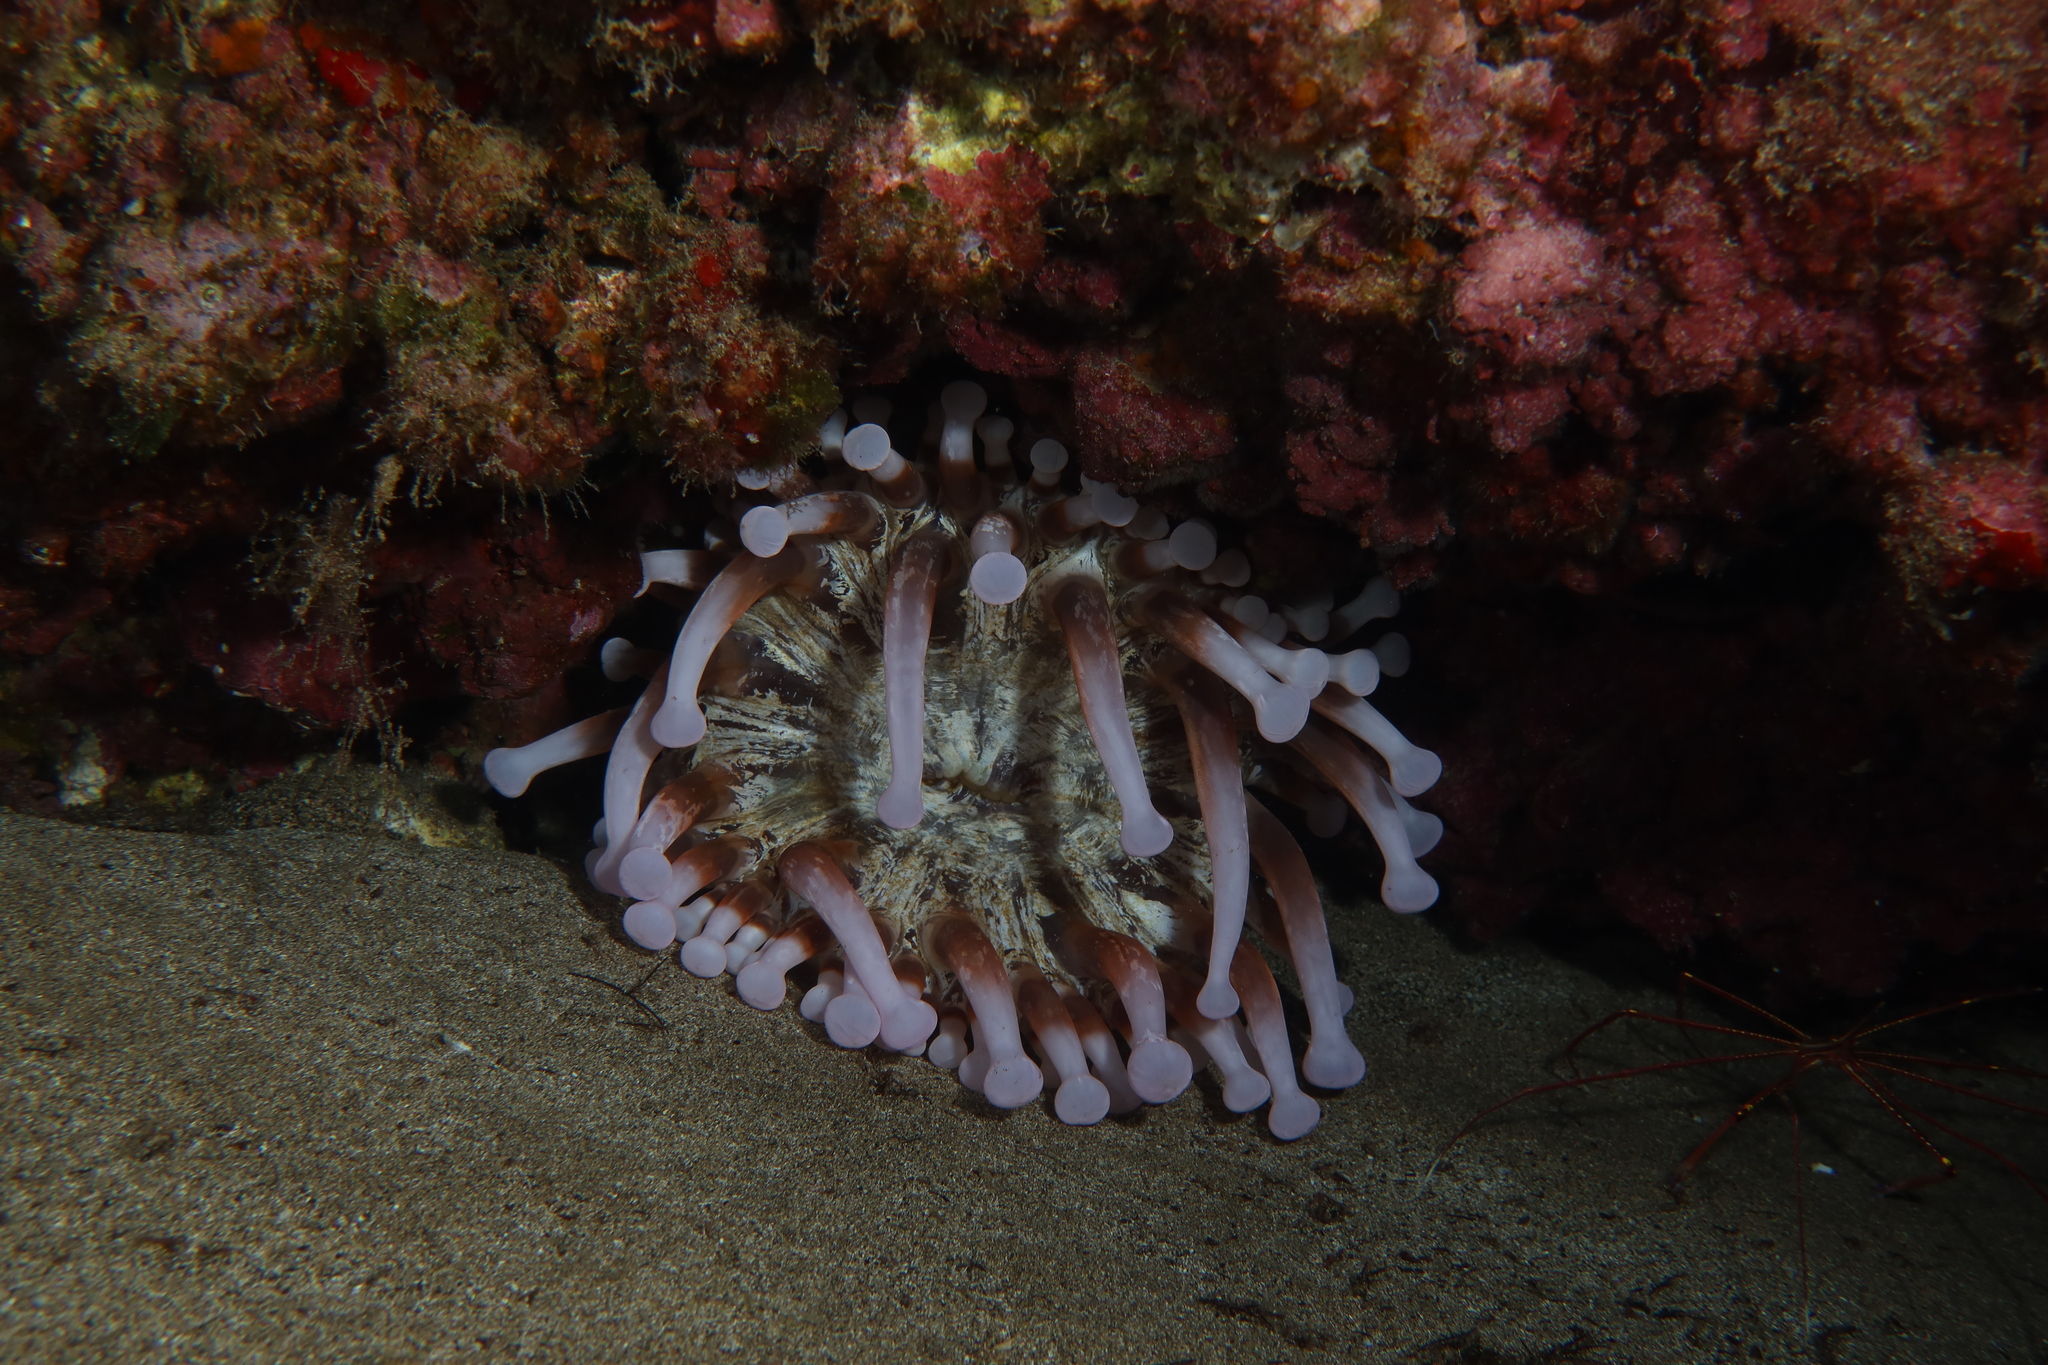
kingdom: Animalia
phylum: Cnidaria
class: Anthozoa
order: Actiniaria
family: Andvakiidae
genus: Telmatactis
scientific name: Telmatactis cricoides
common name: Blunt-tentacled anemone
